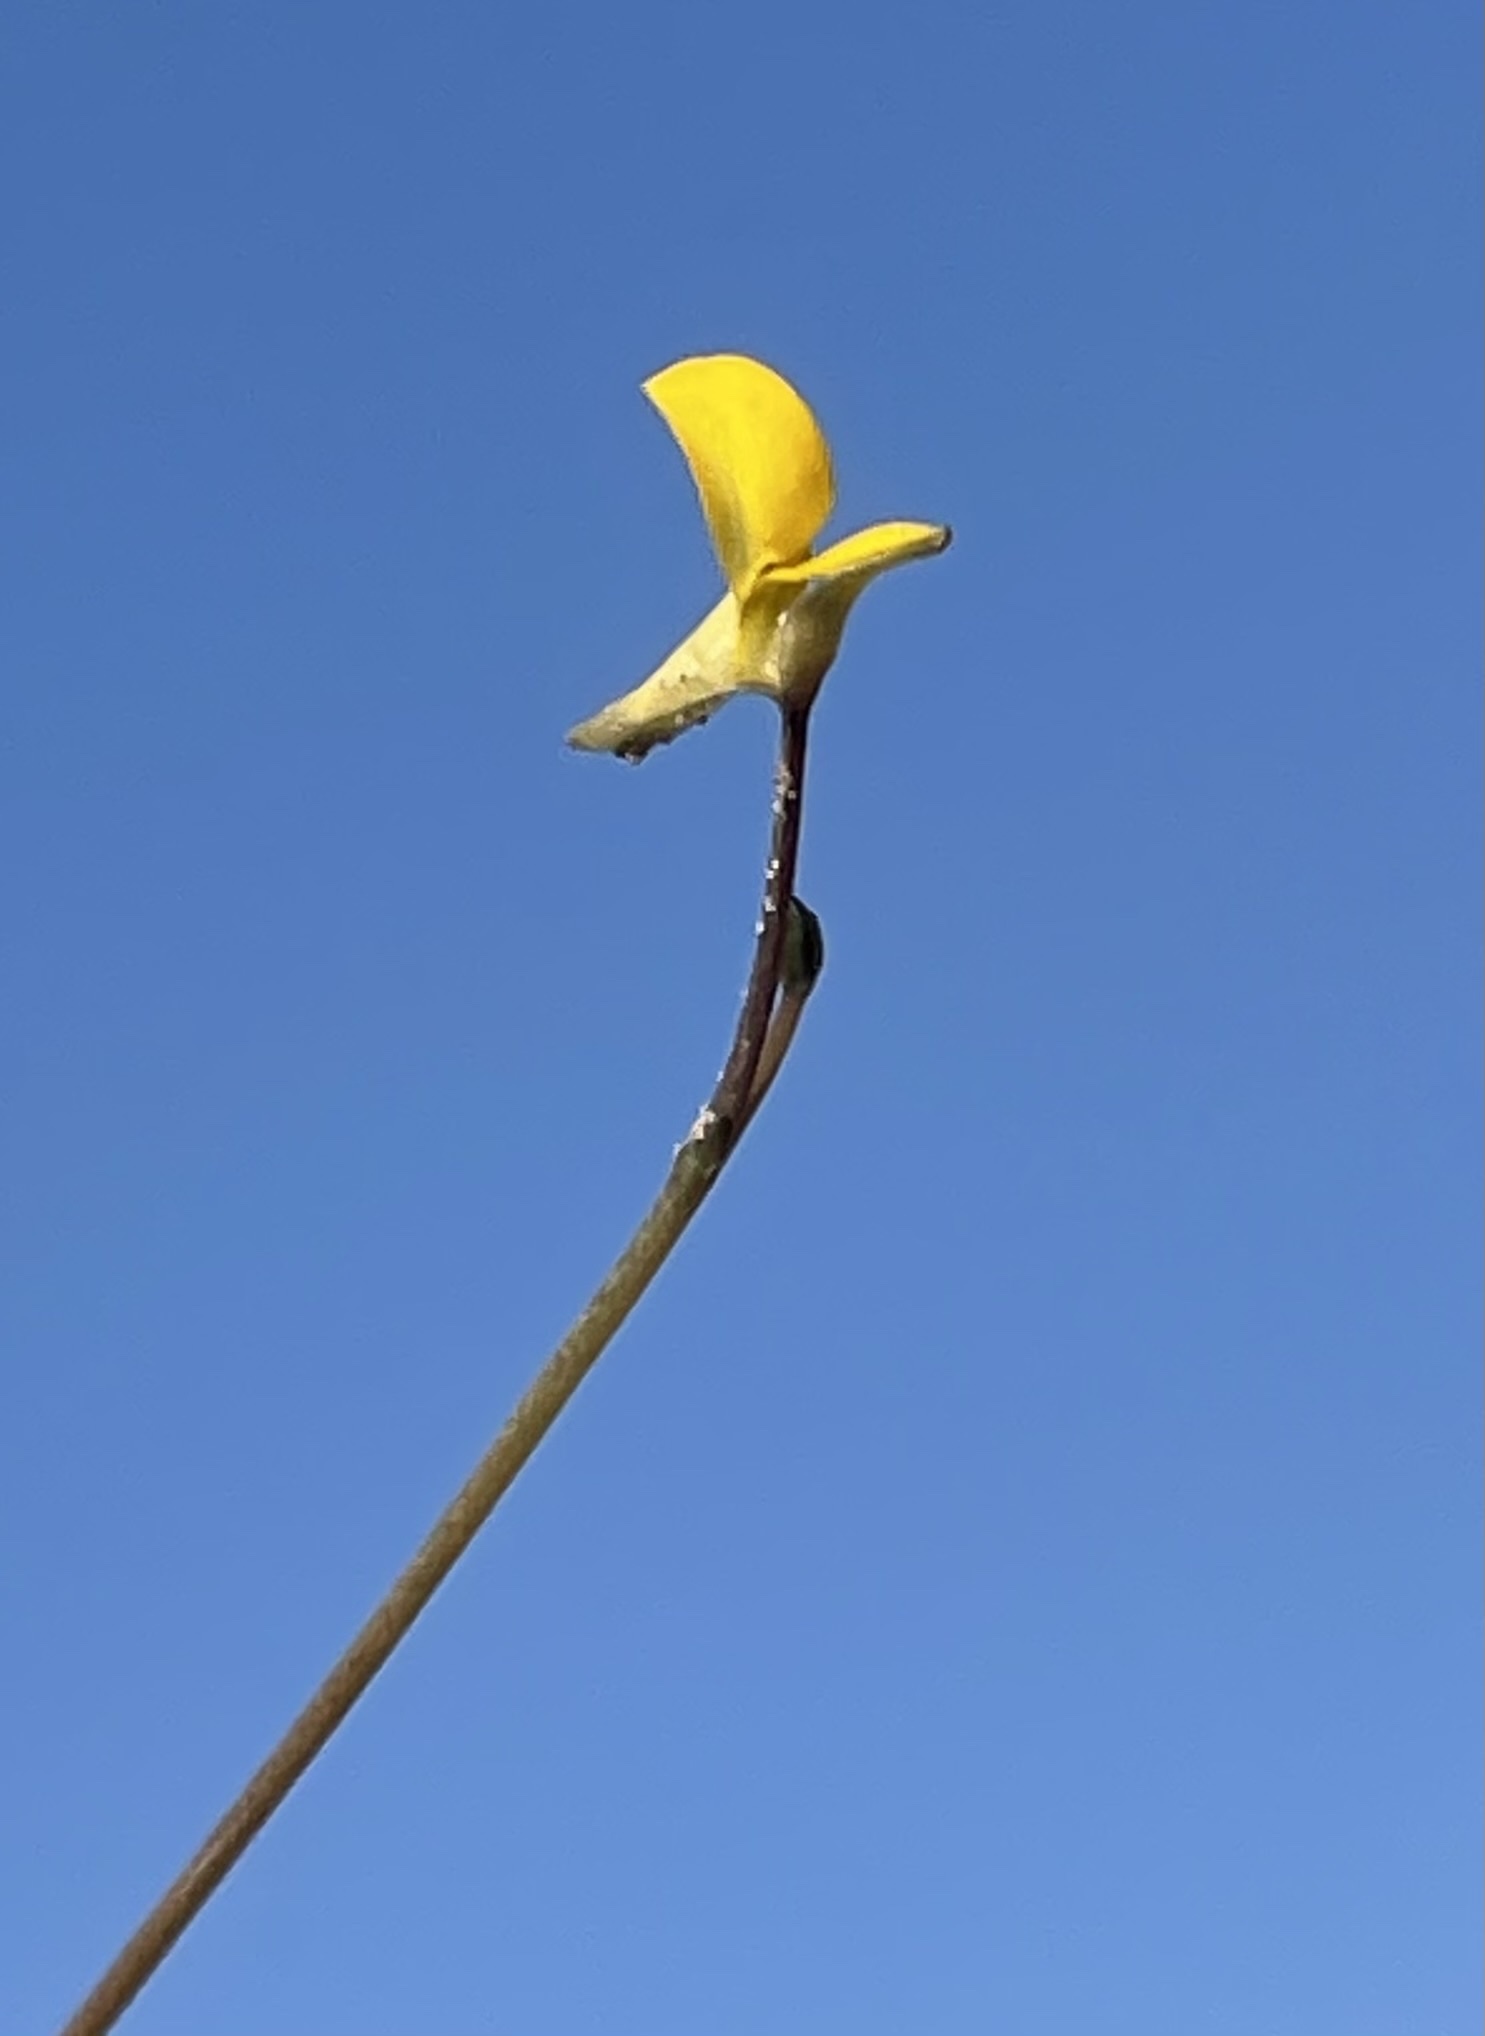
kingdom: Plantae
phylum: Tracheophyta
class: Magnoliopsida
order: Lamiales
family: Lentibulariaceae
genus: Utricularia
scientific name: Utricularia tortilis
